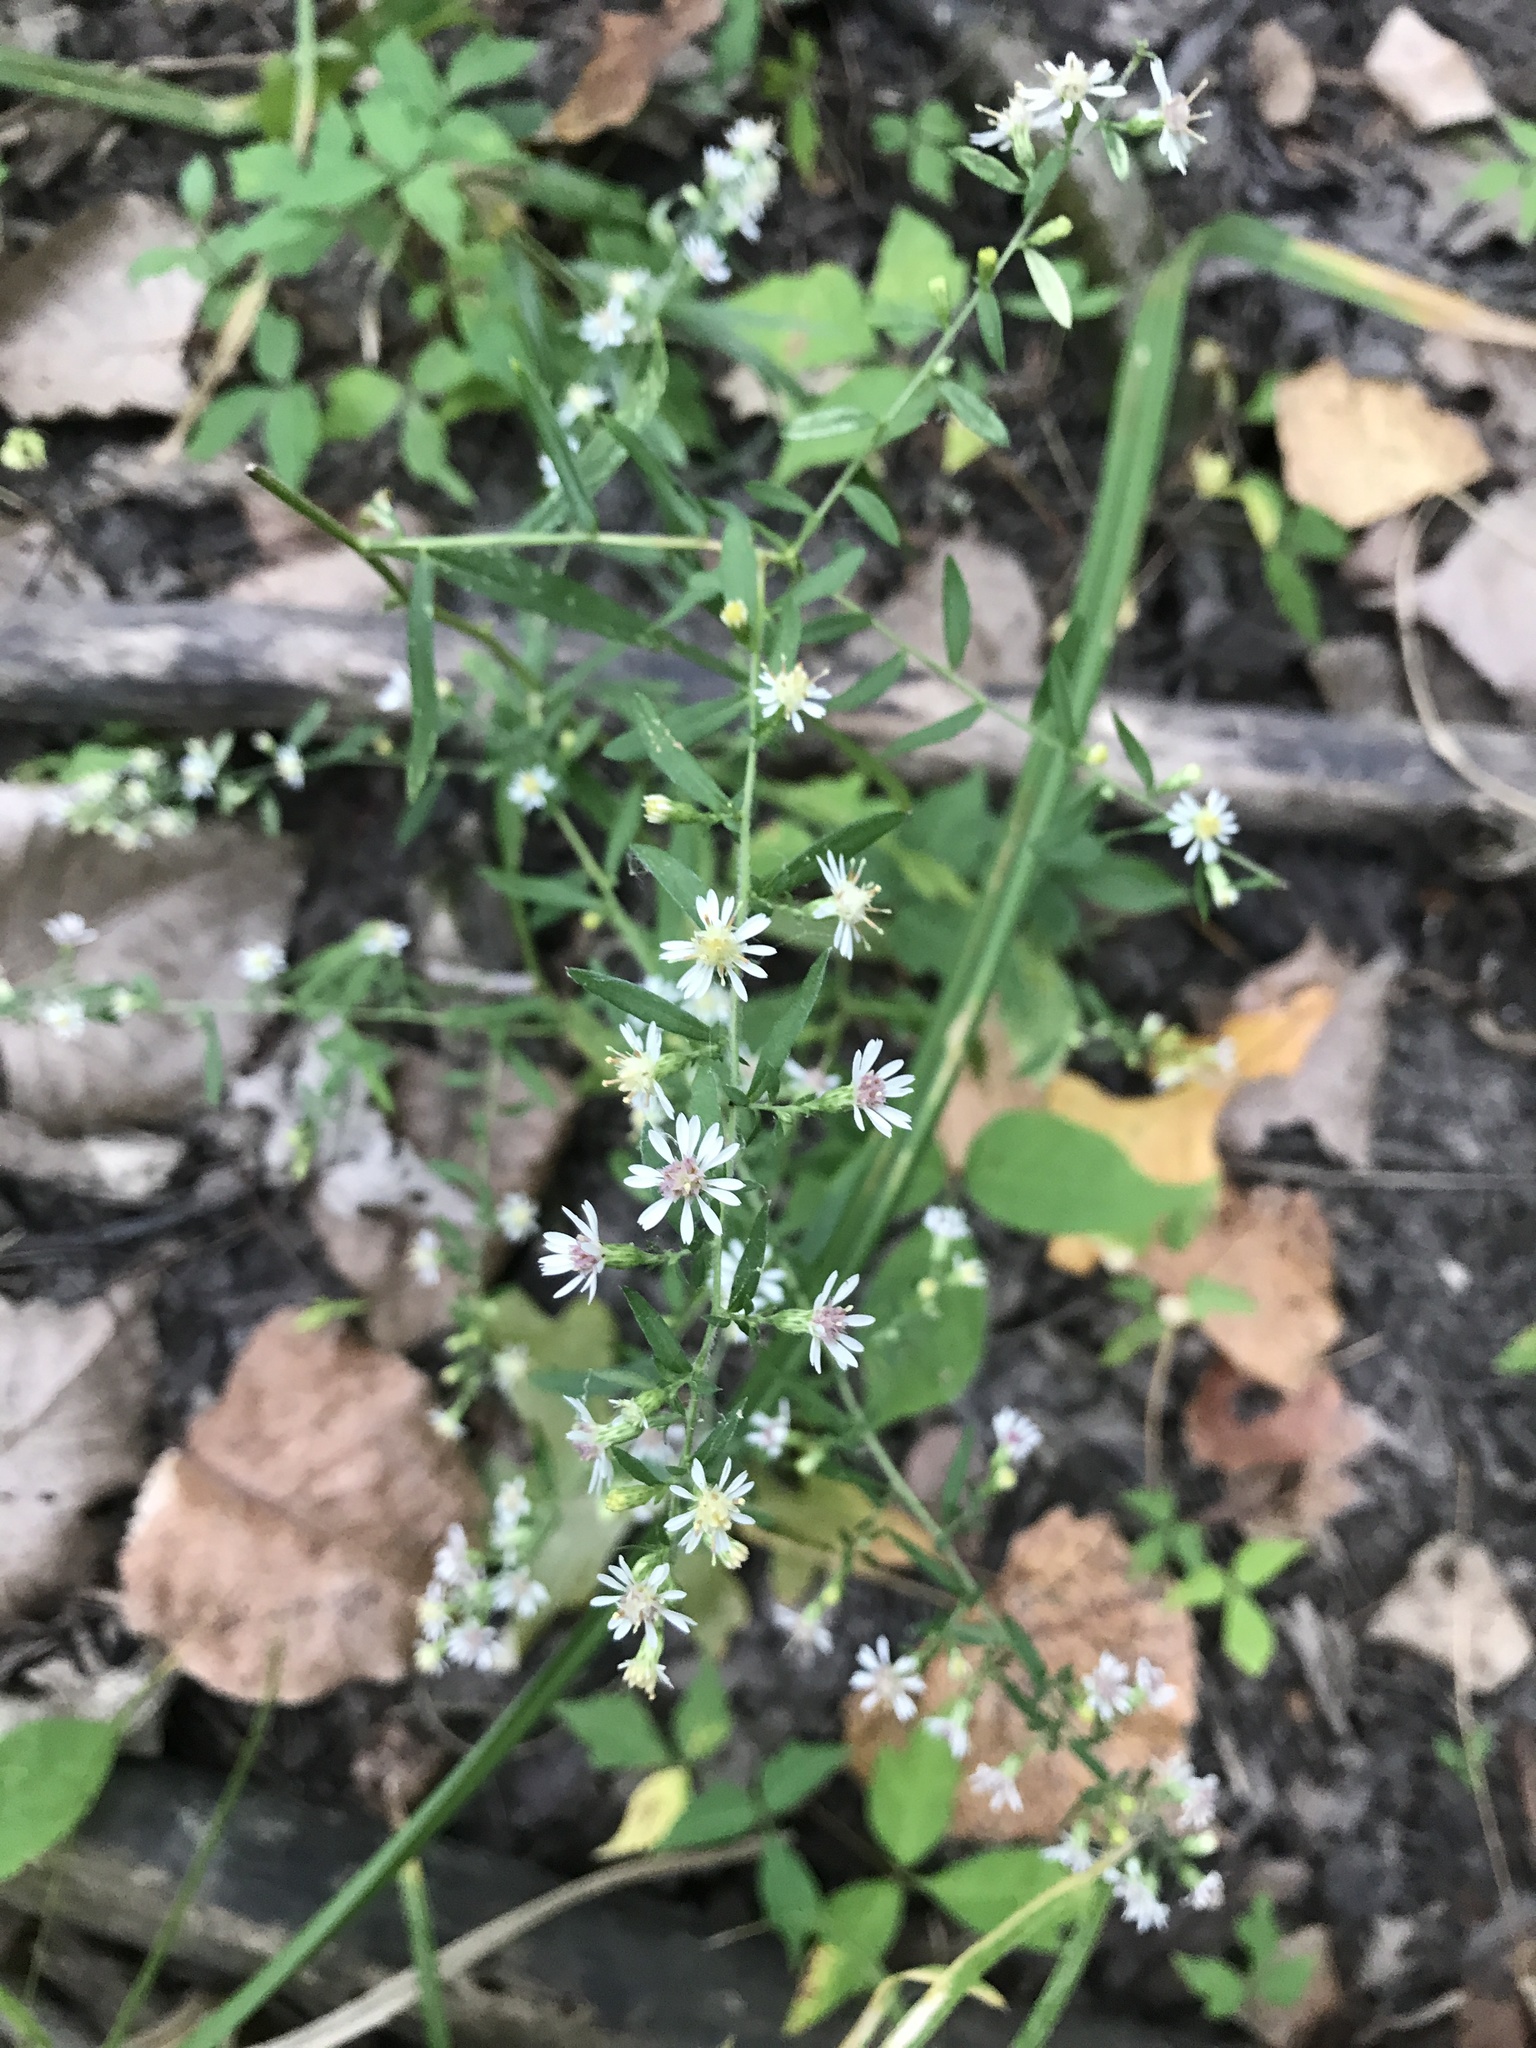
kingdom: Plantae
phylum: Tracheophyta
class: Magnoliopsida
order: Asterales
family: Asteraceae
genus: Symphyotrichum
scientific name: Symphyotrichum lateriflorum
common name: Calico aster
